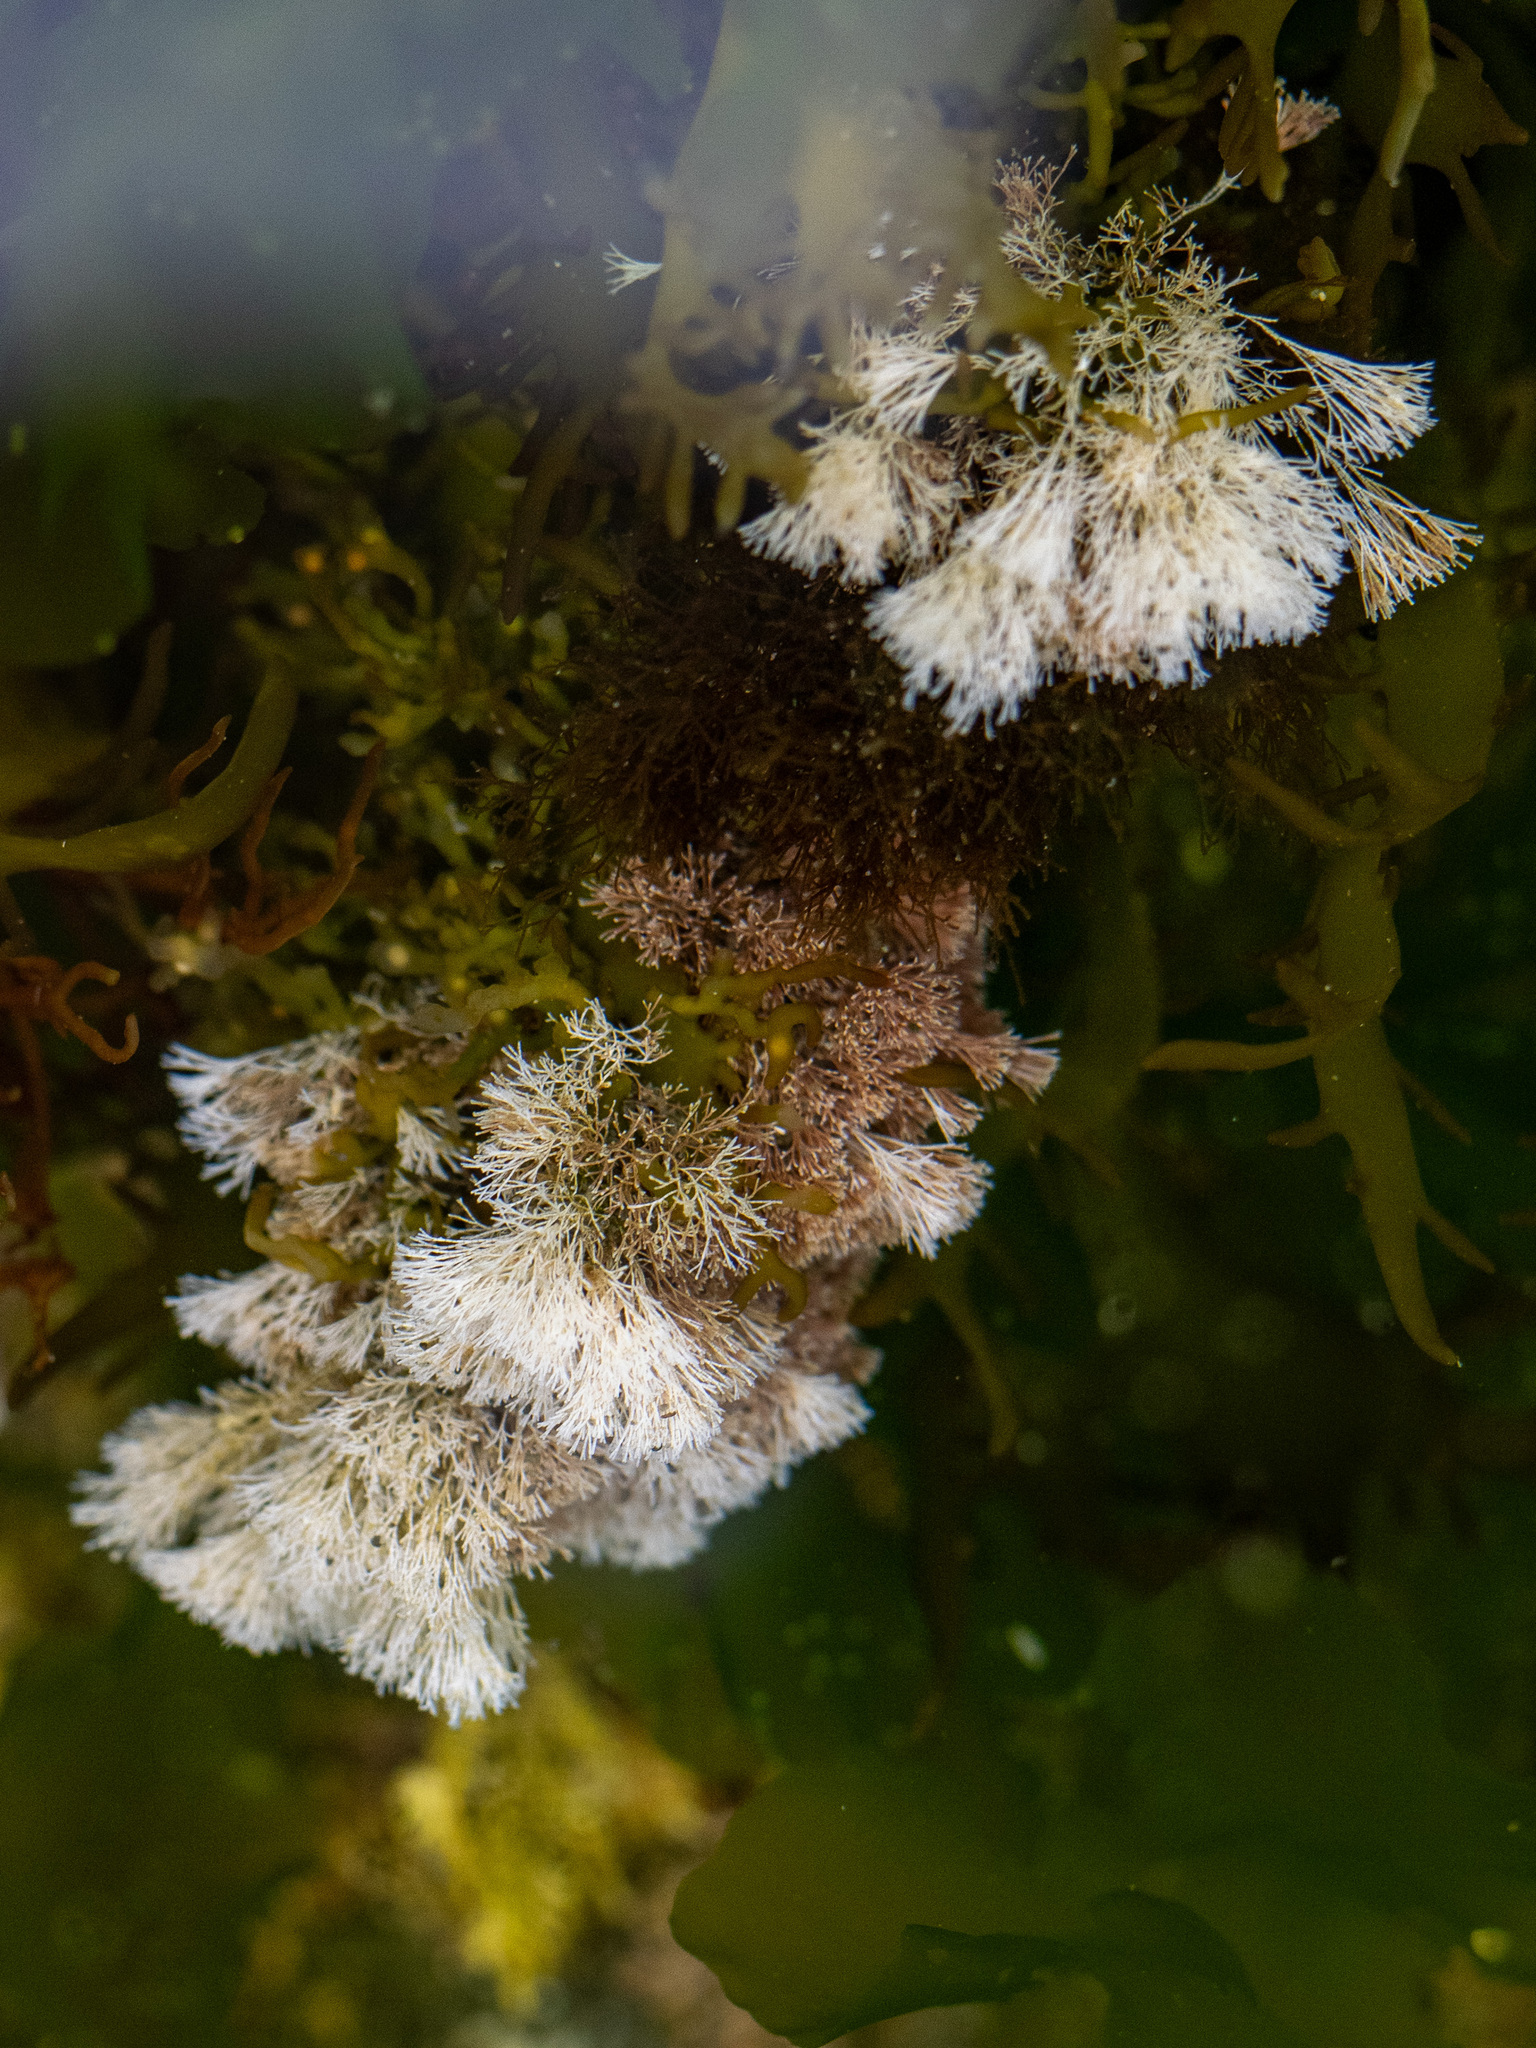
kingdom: Plantae
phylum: Rhodophyta
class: Florideophyceae
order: Corallinales
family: Corallinaceae
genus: Jania
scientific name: Jania sphaeroramosa
